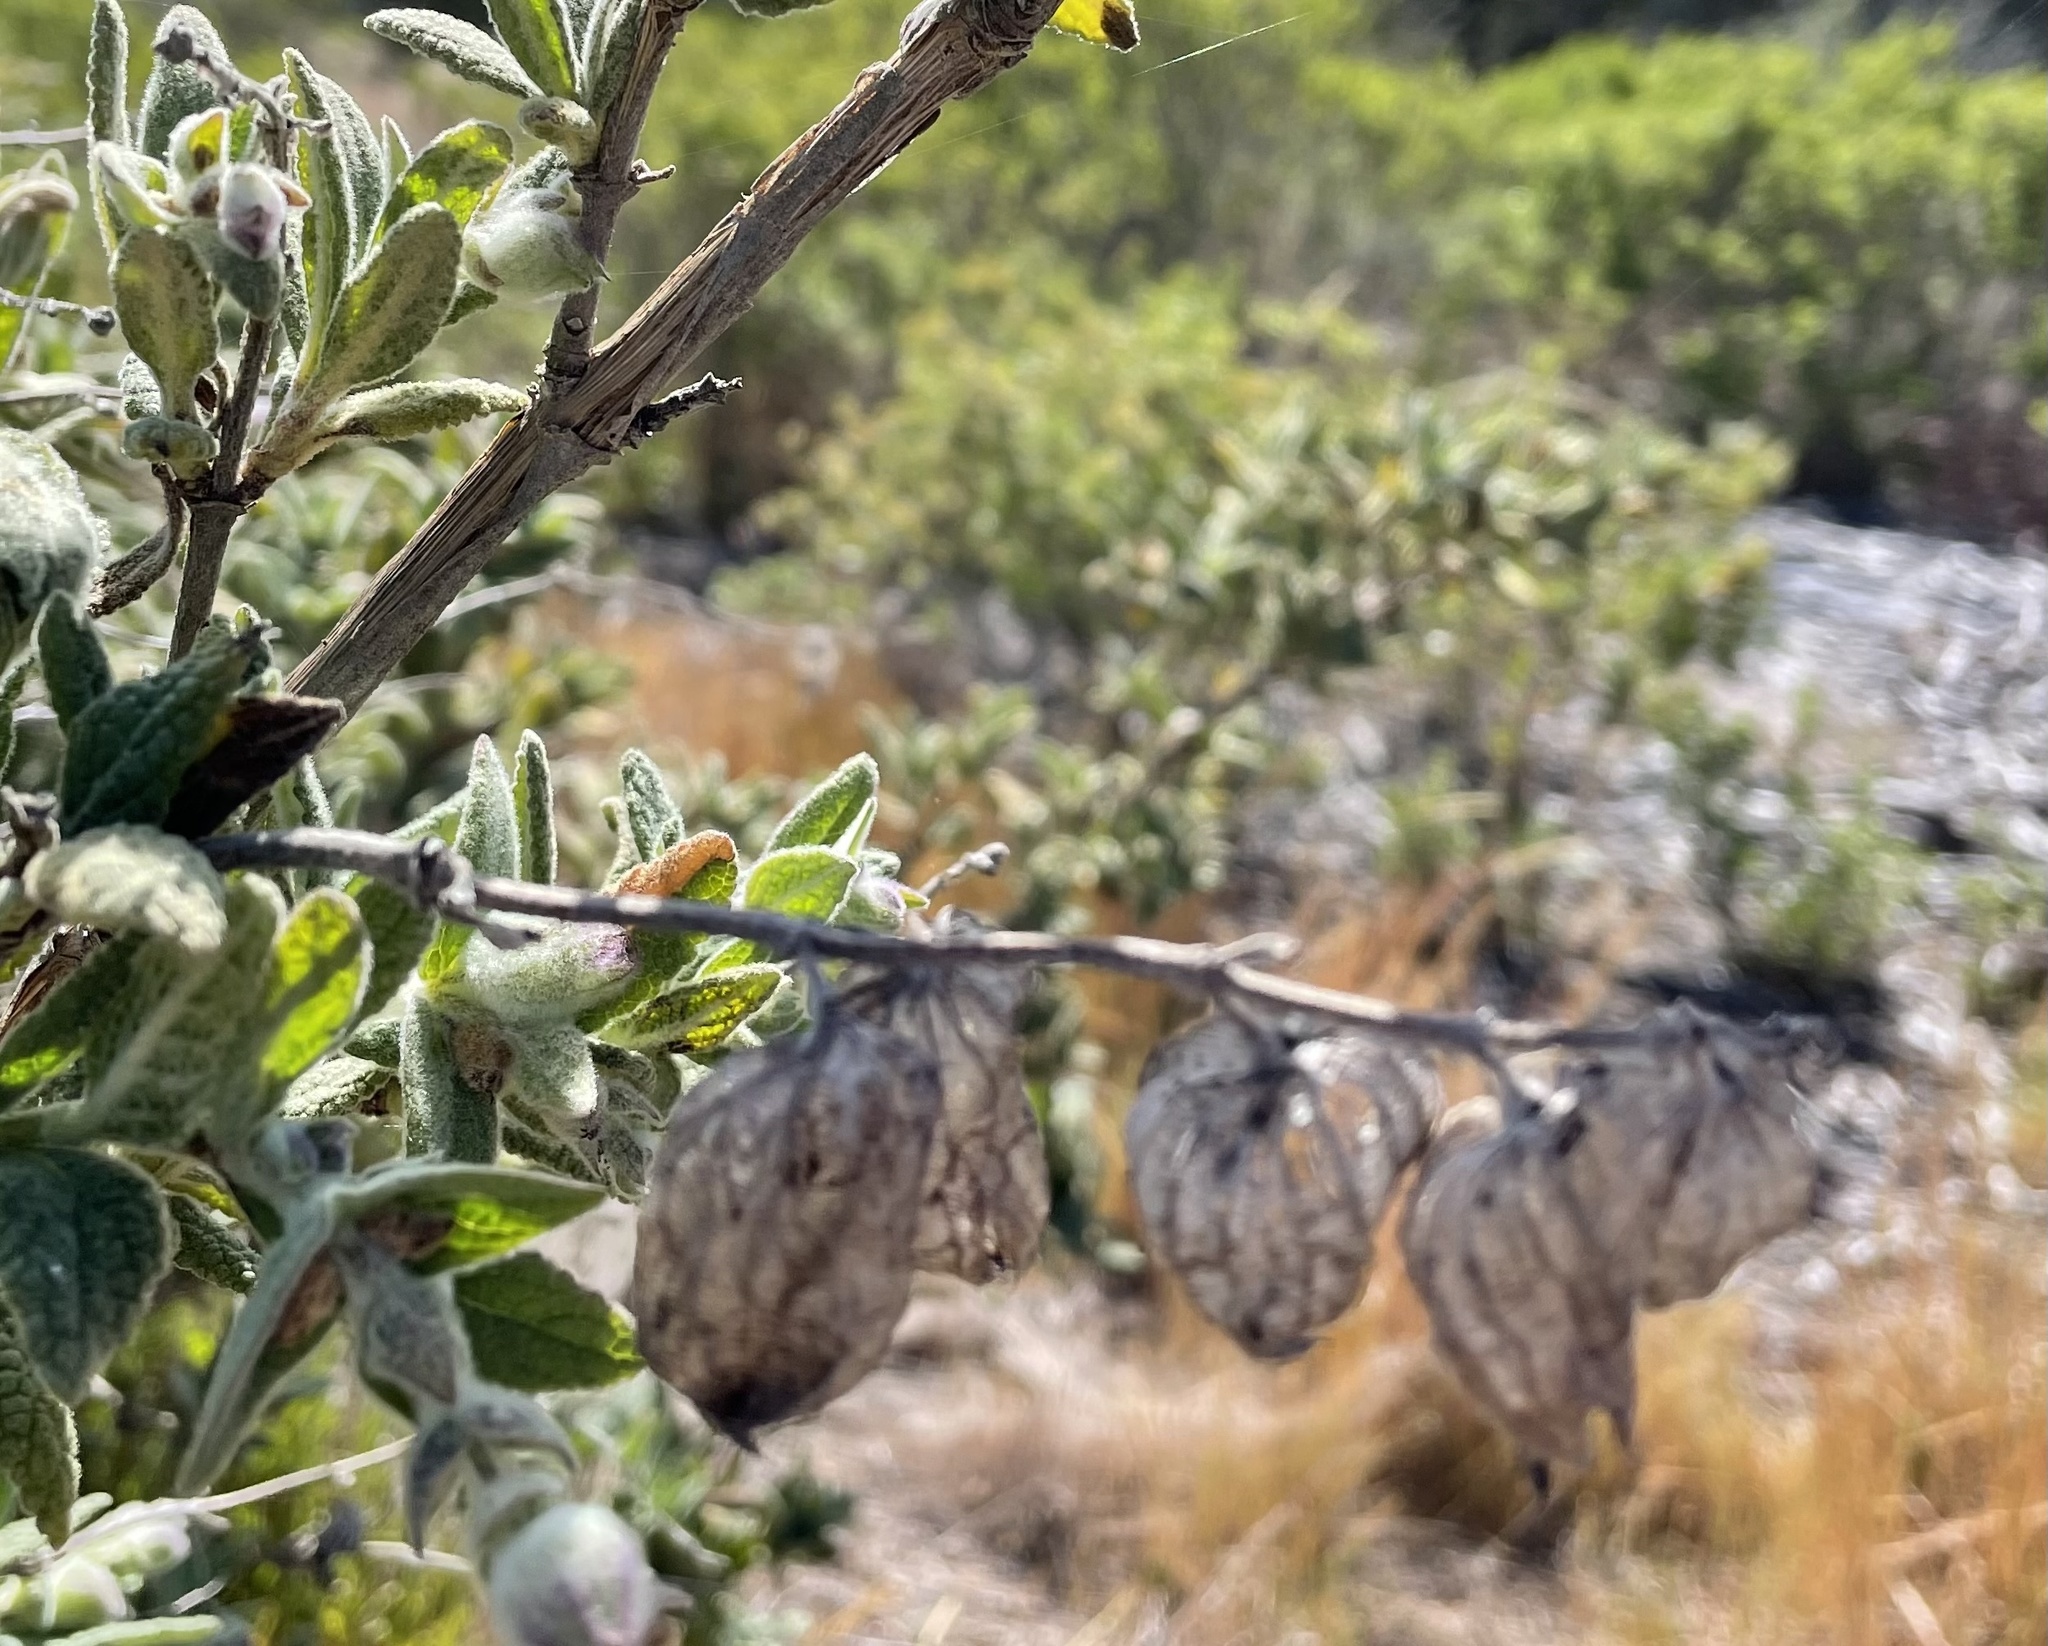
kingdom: Plantae
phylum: Tracheophyta
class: Magnoliopsida
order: Lamiales
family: Lamiaceae
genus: Lepechinia
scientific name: Lepechinia calycina
